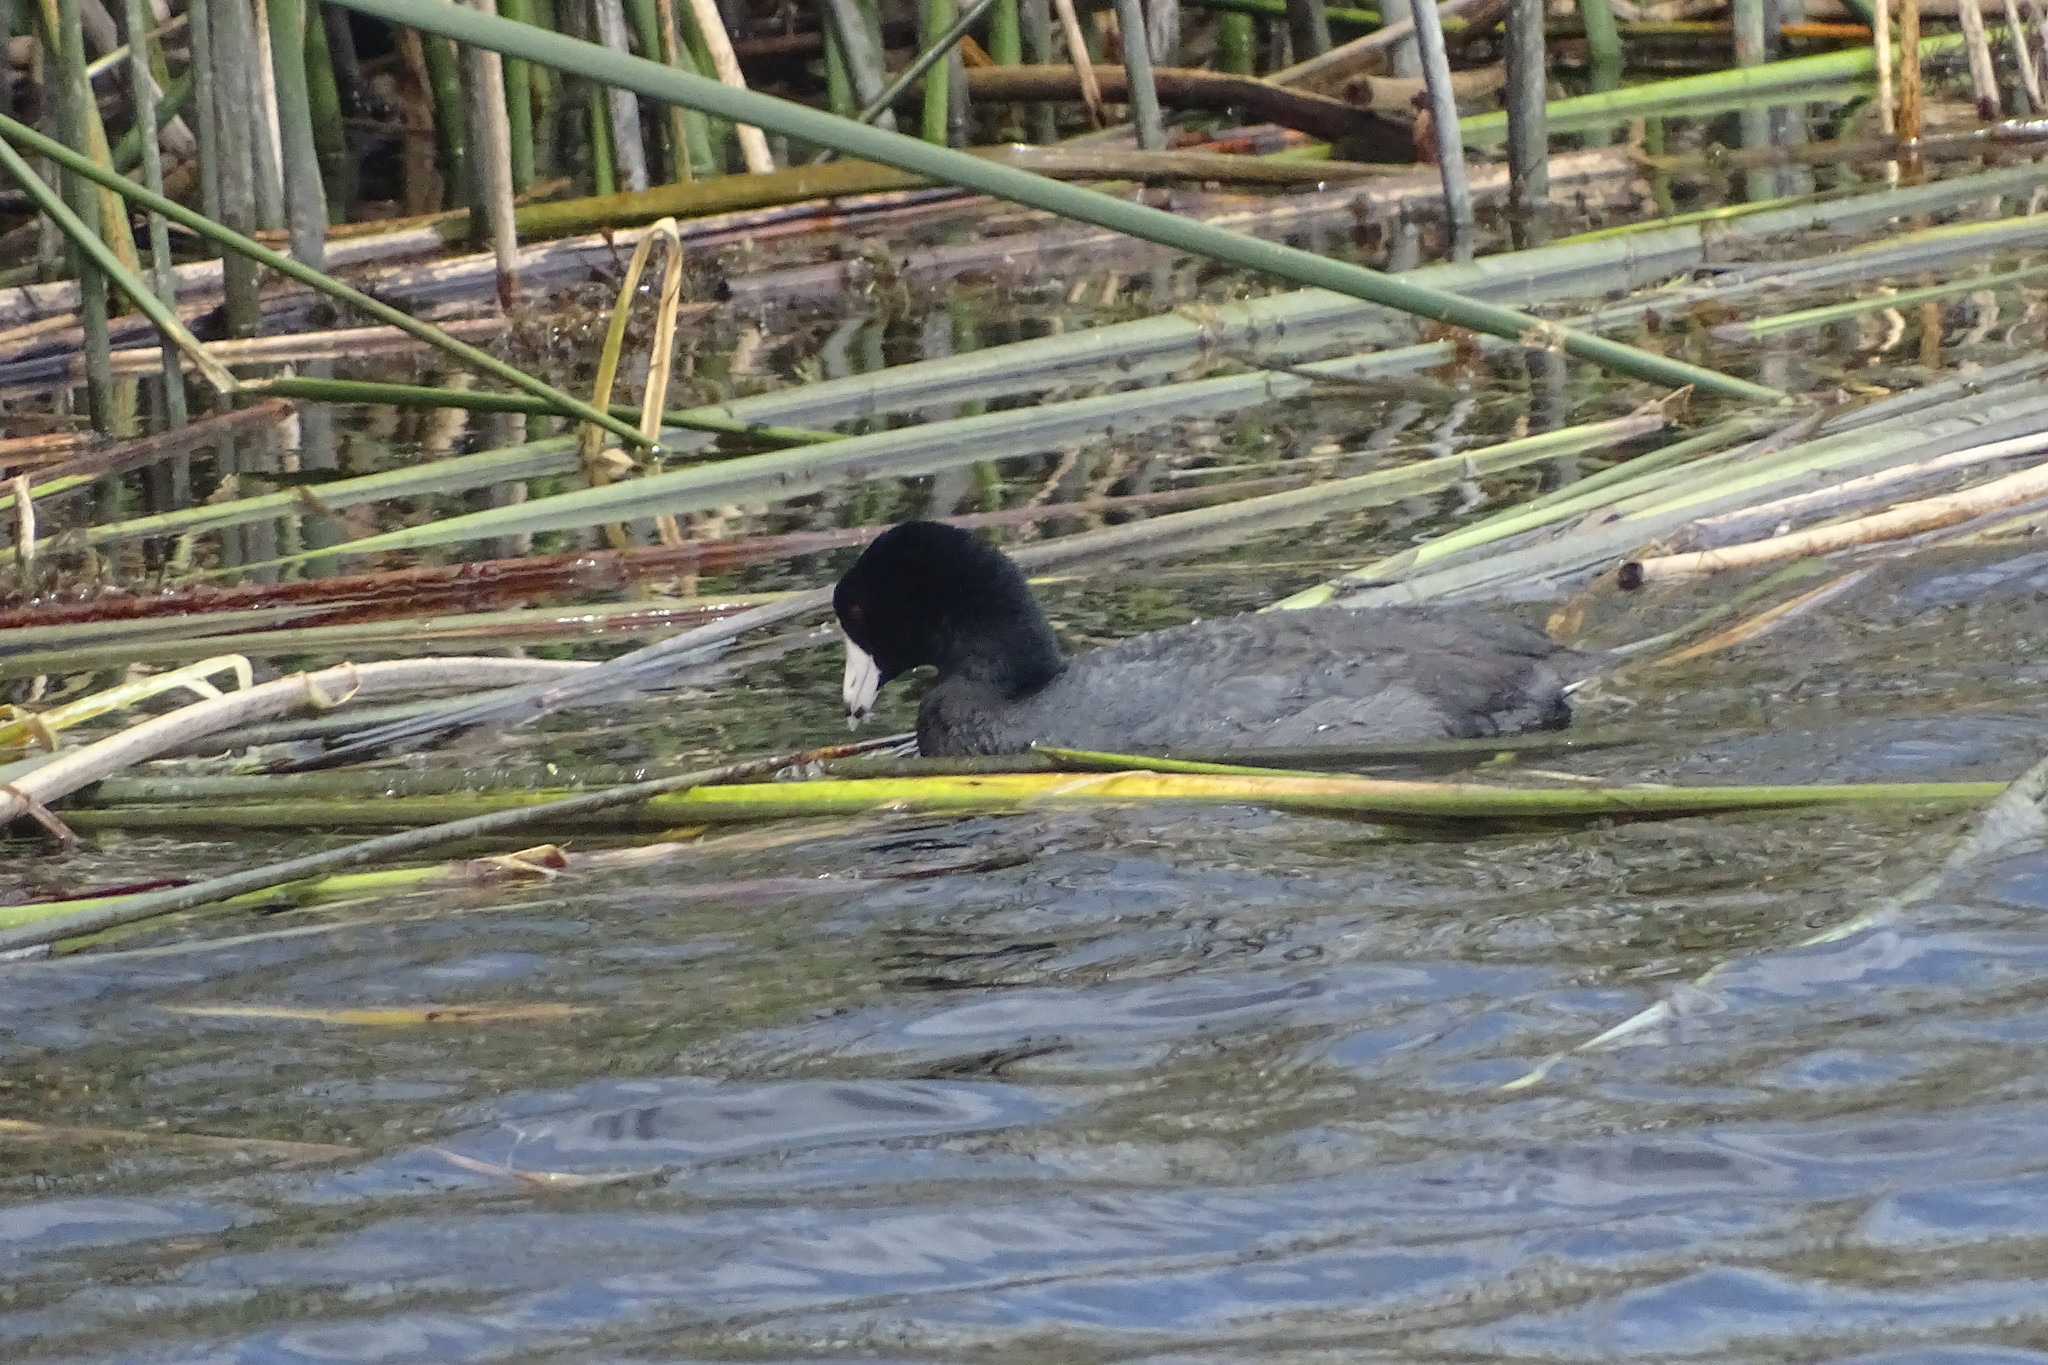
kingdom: Animalia
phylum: Chordata
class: Aves
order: Gruiformes
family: Rallidae
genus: Fulica
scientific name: Fulica americana
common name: American coot
